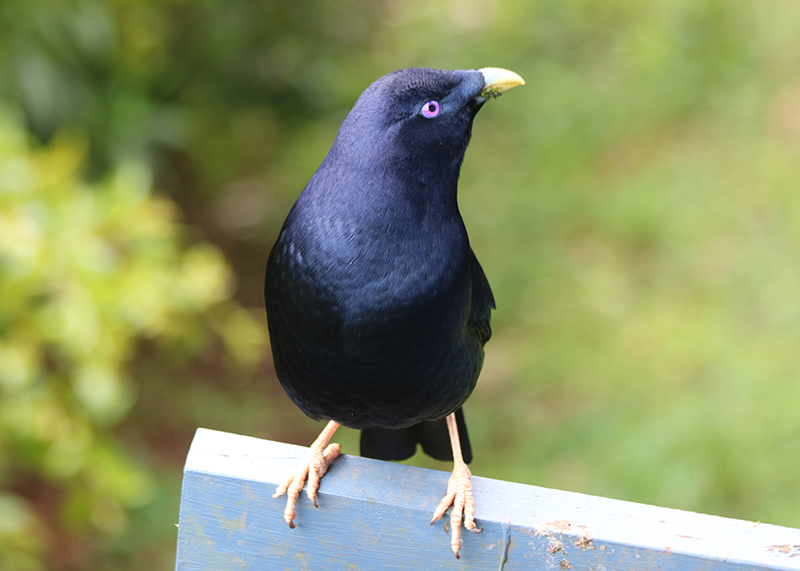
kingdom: Animalia
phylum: Chordata
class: Aves
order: Passeriformes
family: Ptilonorhynchidae
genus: Ptilonorhynchus
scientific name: Ptilonorhynchus violaceus
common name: Satin bowerbird
